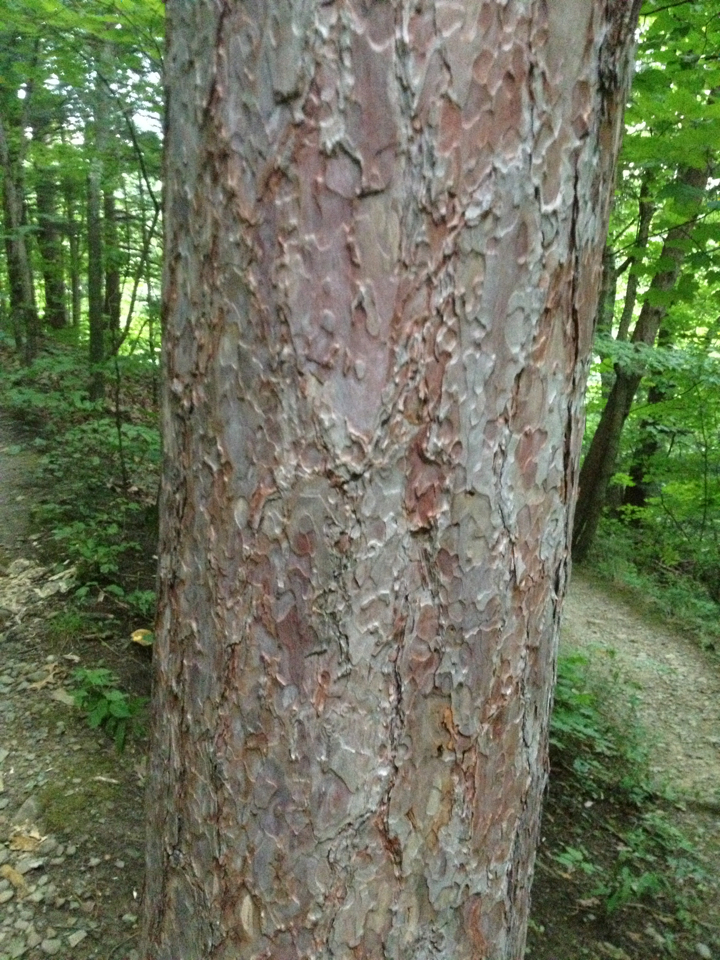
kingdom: Plantae
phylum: Tracheophyta
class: Pinopsida
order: Pinales
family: Pinaceae
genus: Pinus
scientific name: Pinus resinosa
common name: Norway pine
